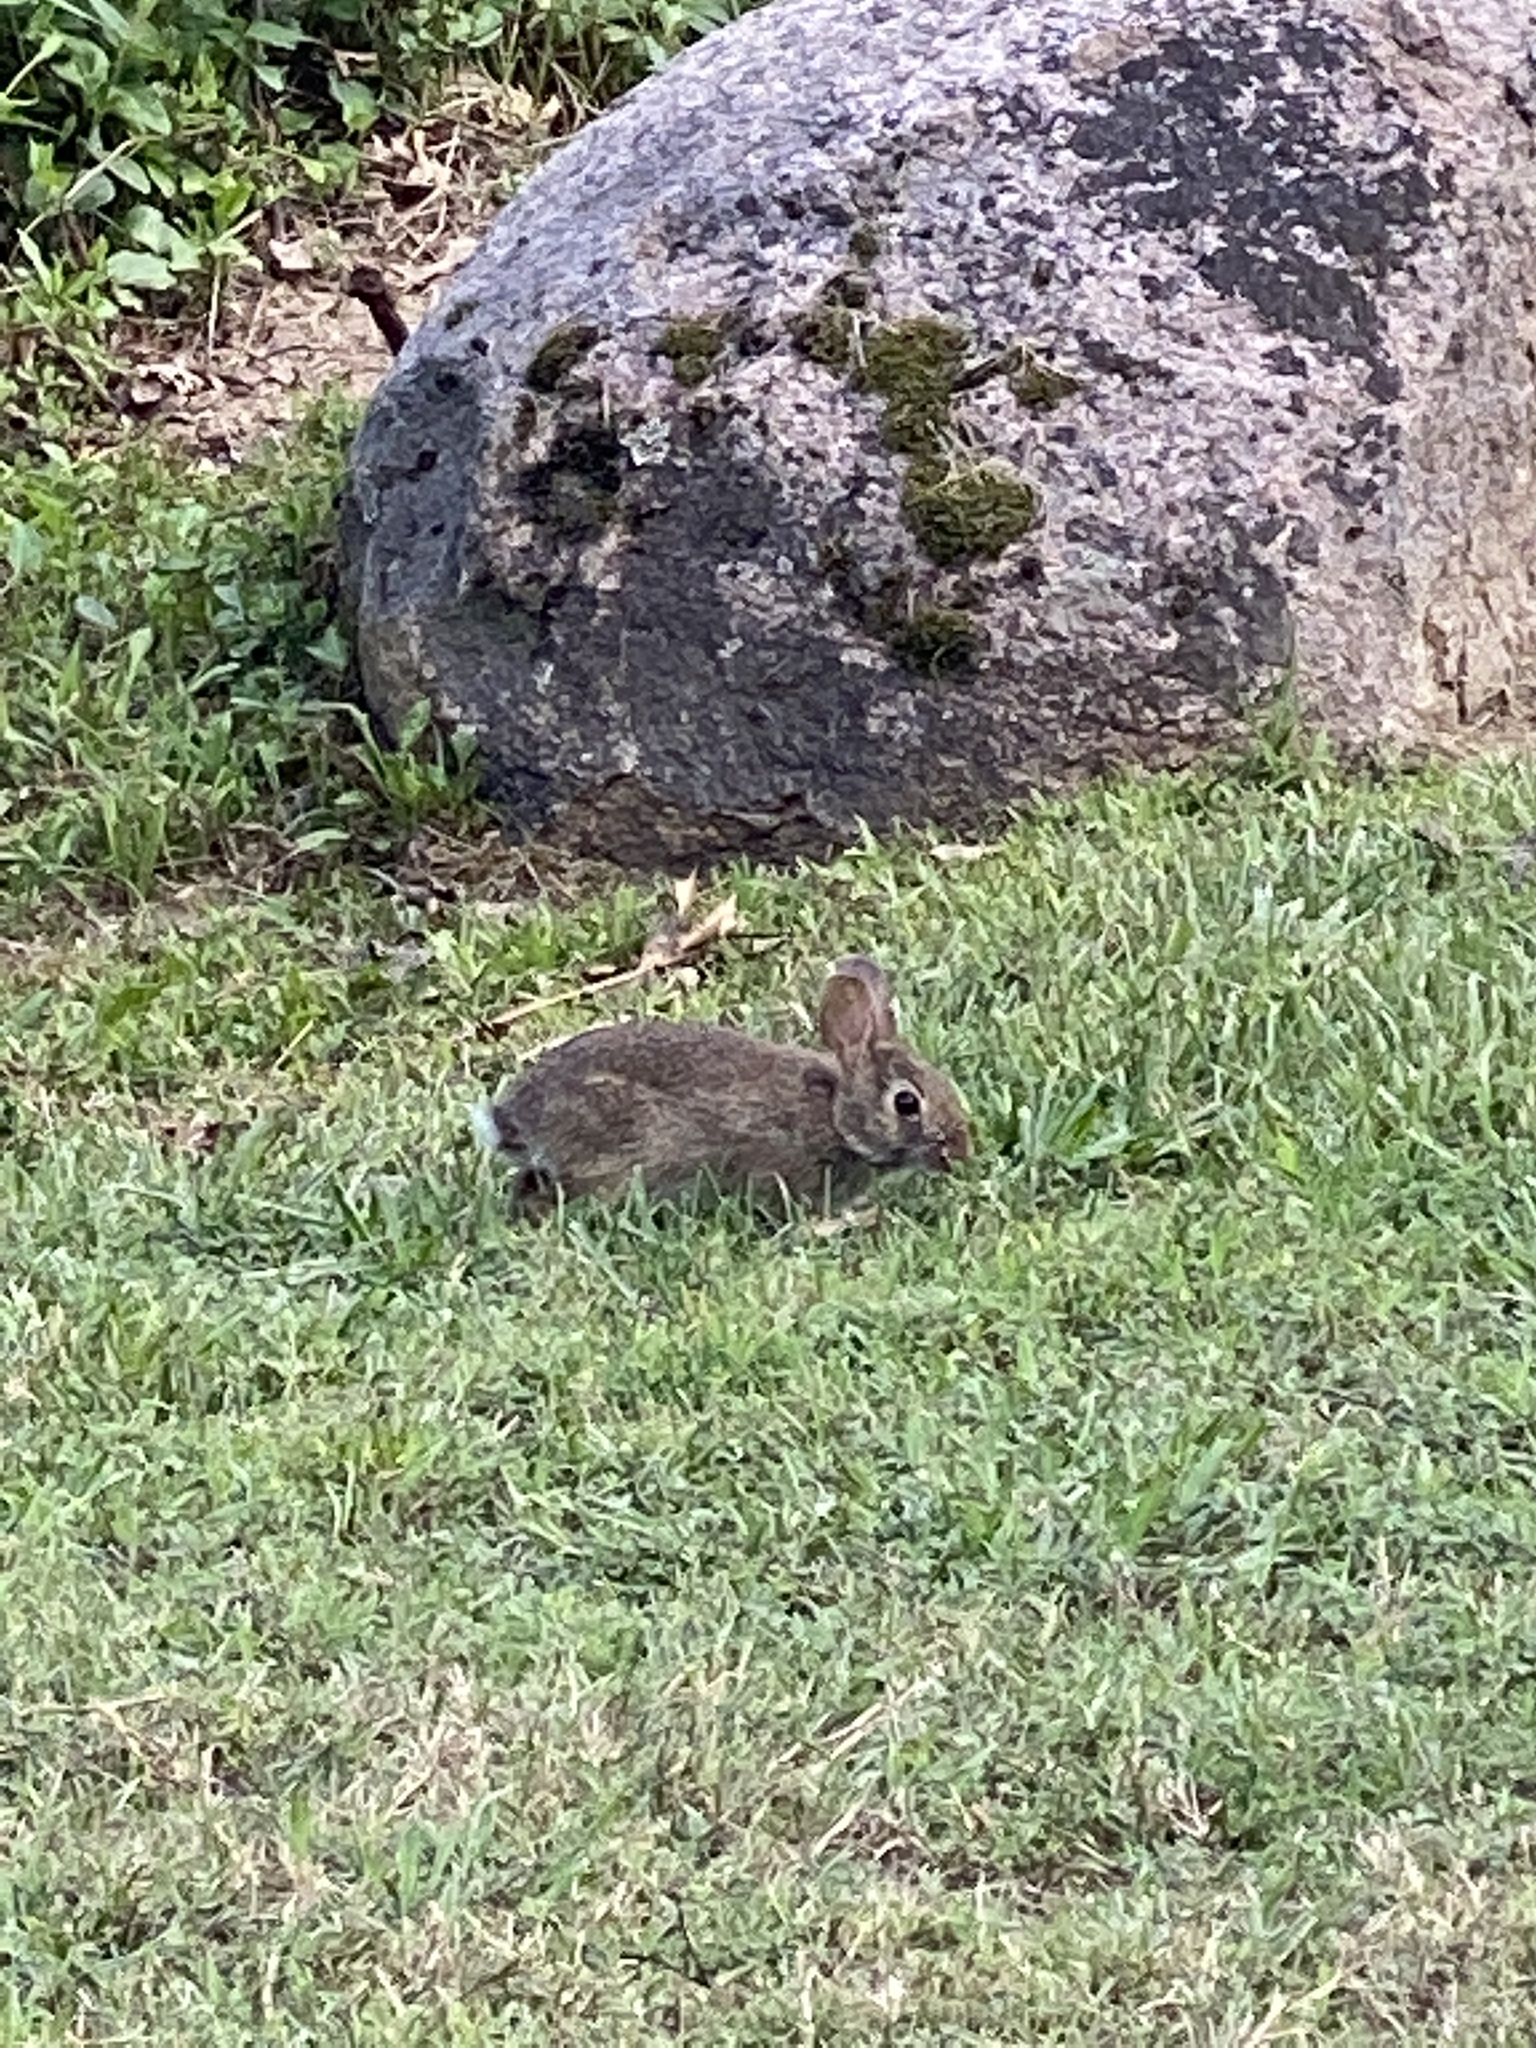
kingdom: Animalia
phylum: Chordata
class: Mammalia
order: Lagomorpha
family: Leporidae
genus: Sylvilagus
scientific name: Sylvilagus floridanus
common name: Eastern cottontail
